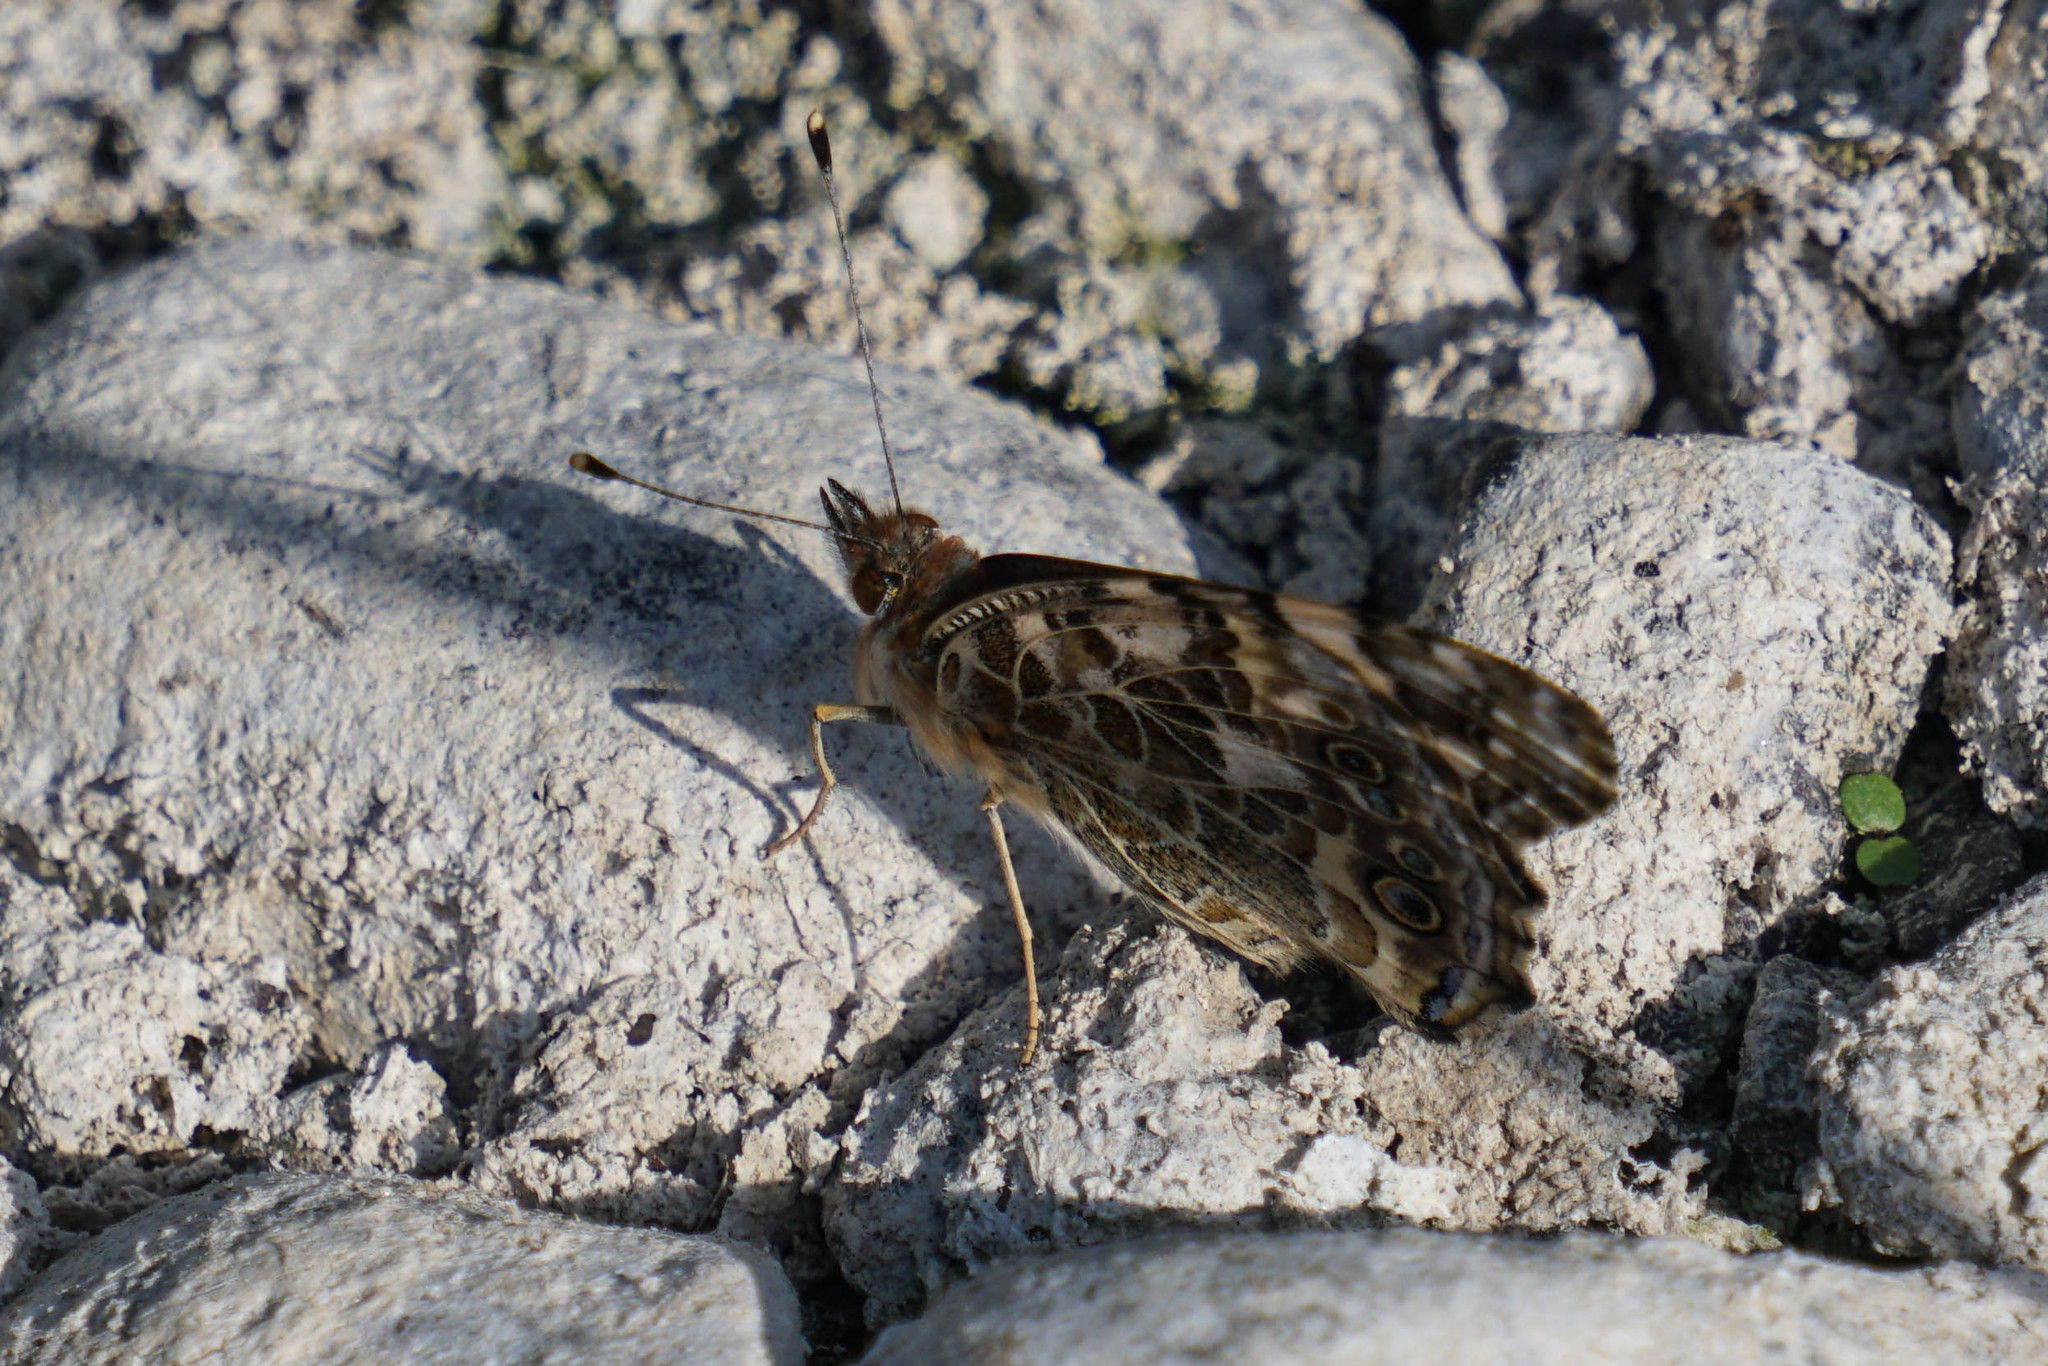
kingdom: Animalia
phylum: Arthropoda
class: Insecta
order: Lepidoptera
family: Nymphalidae
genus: Vanessa
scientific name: Vanessa cardui
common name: Painted lady
